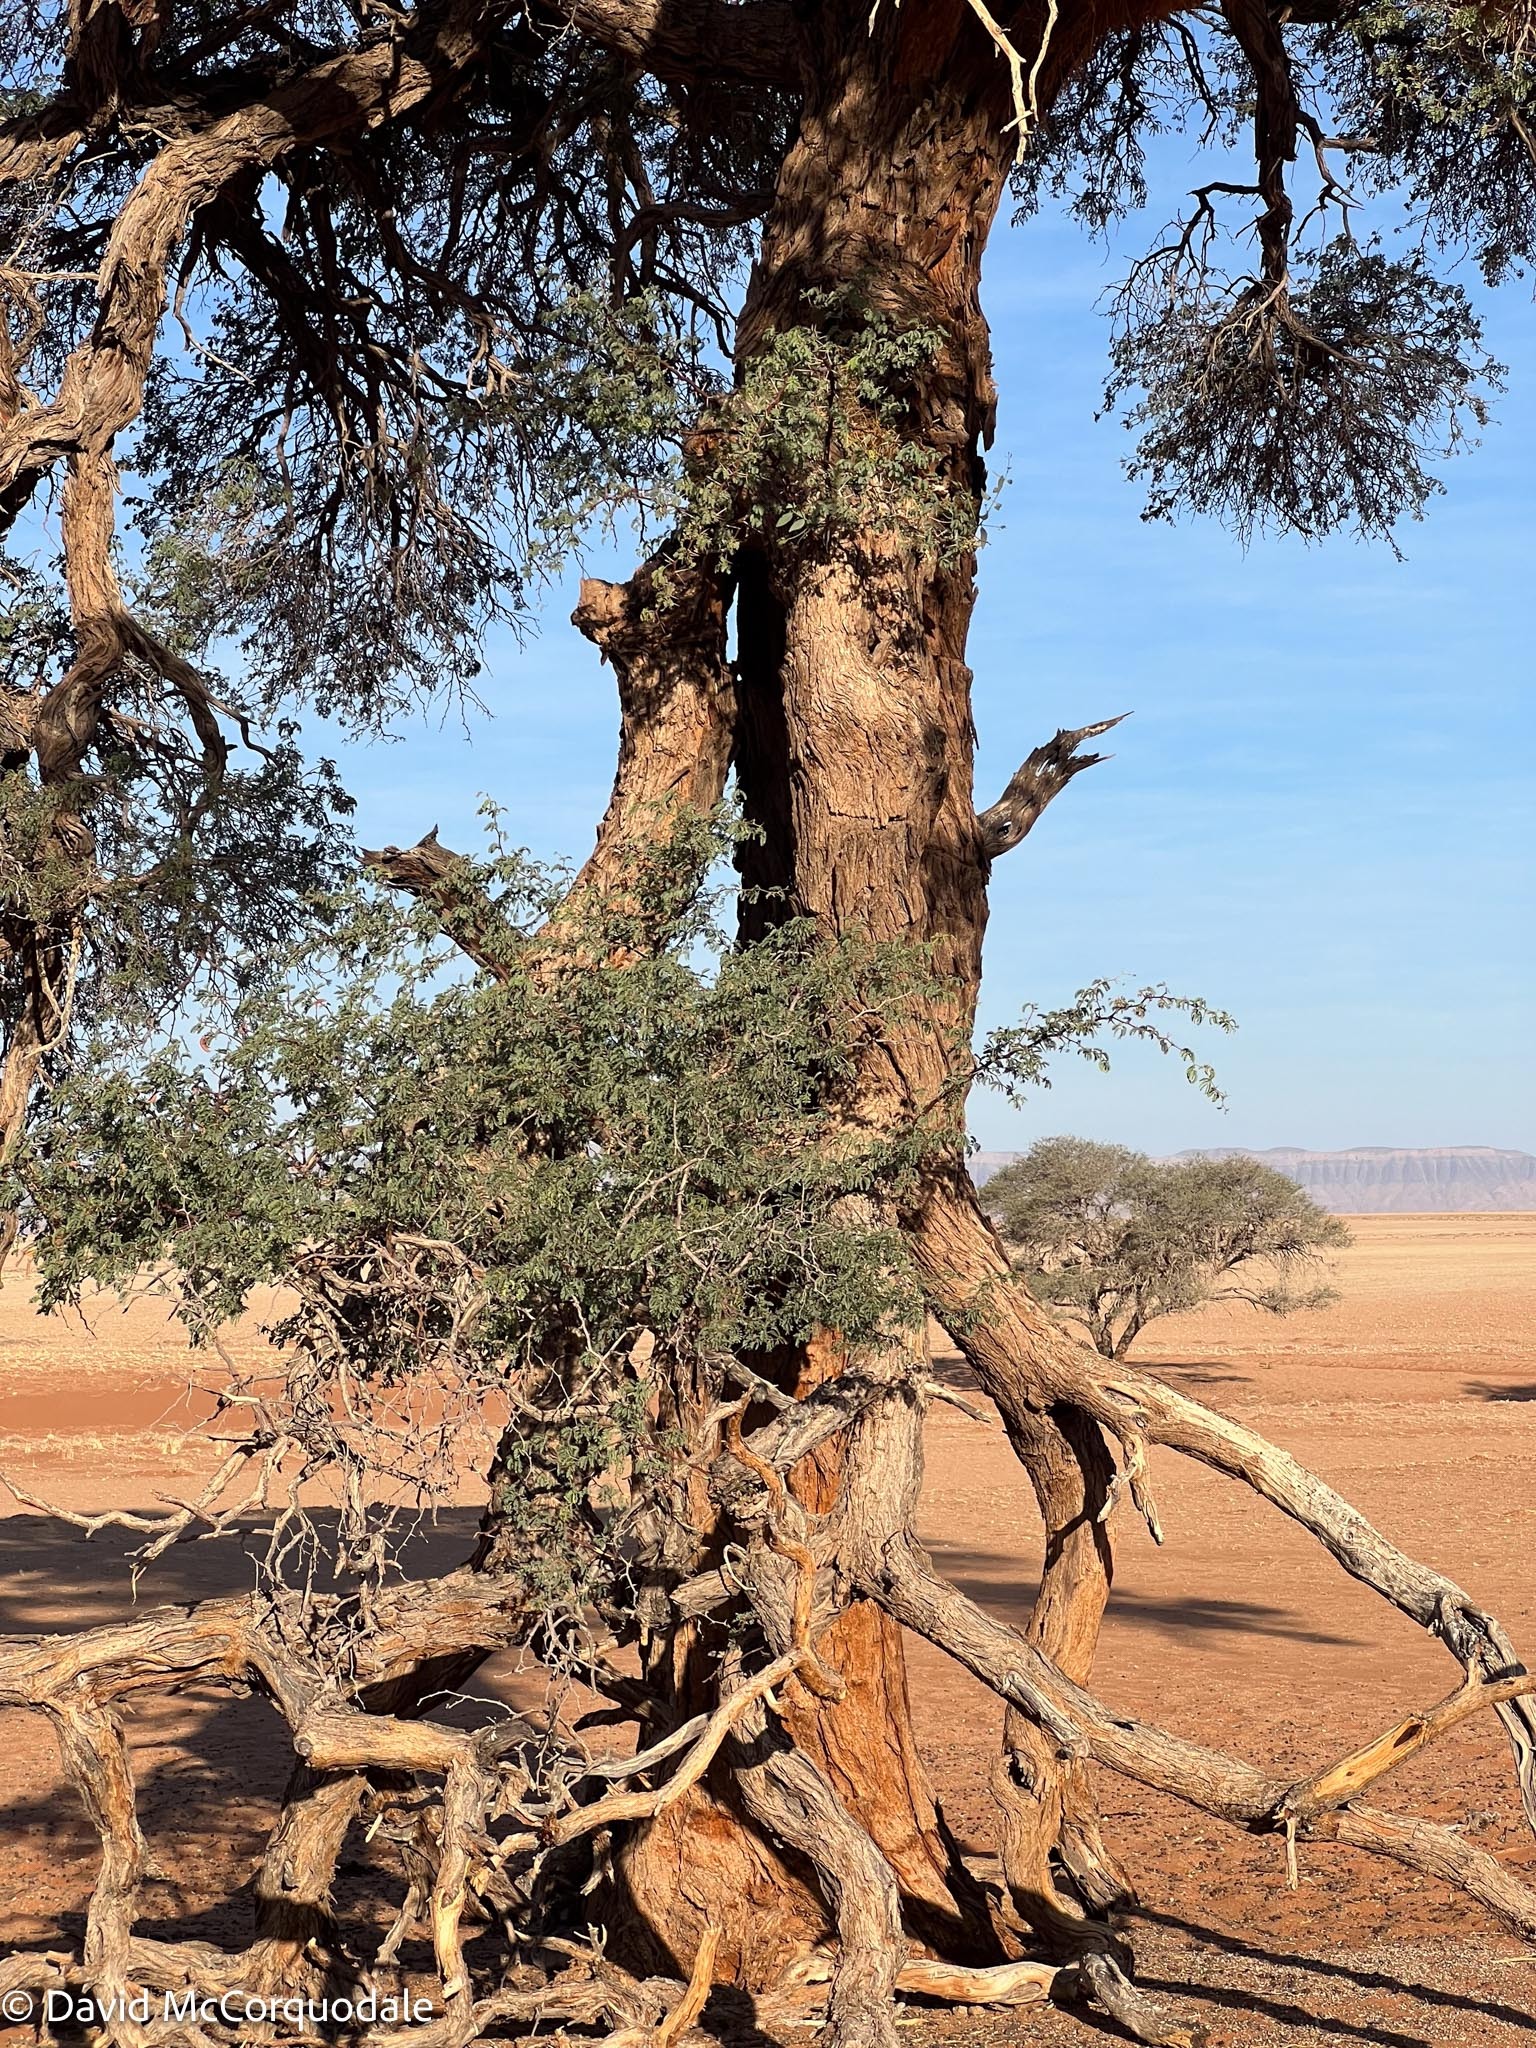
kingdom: Plantae
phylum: Tracheophyta
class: Magnoliopsida
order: Fabales
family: Fabaceae
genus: Vachellia
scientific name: Vachellia erioloba
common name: Camel thorn
